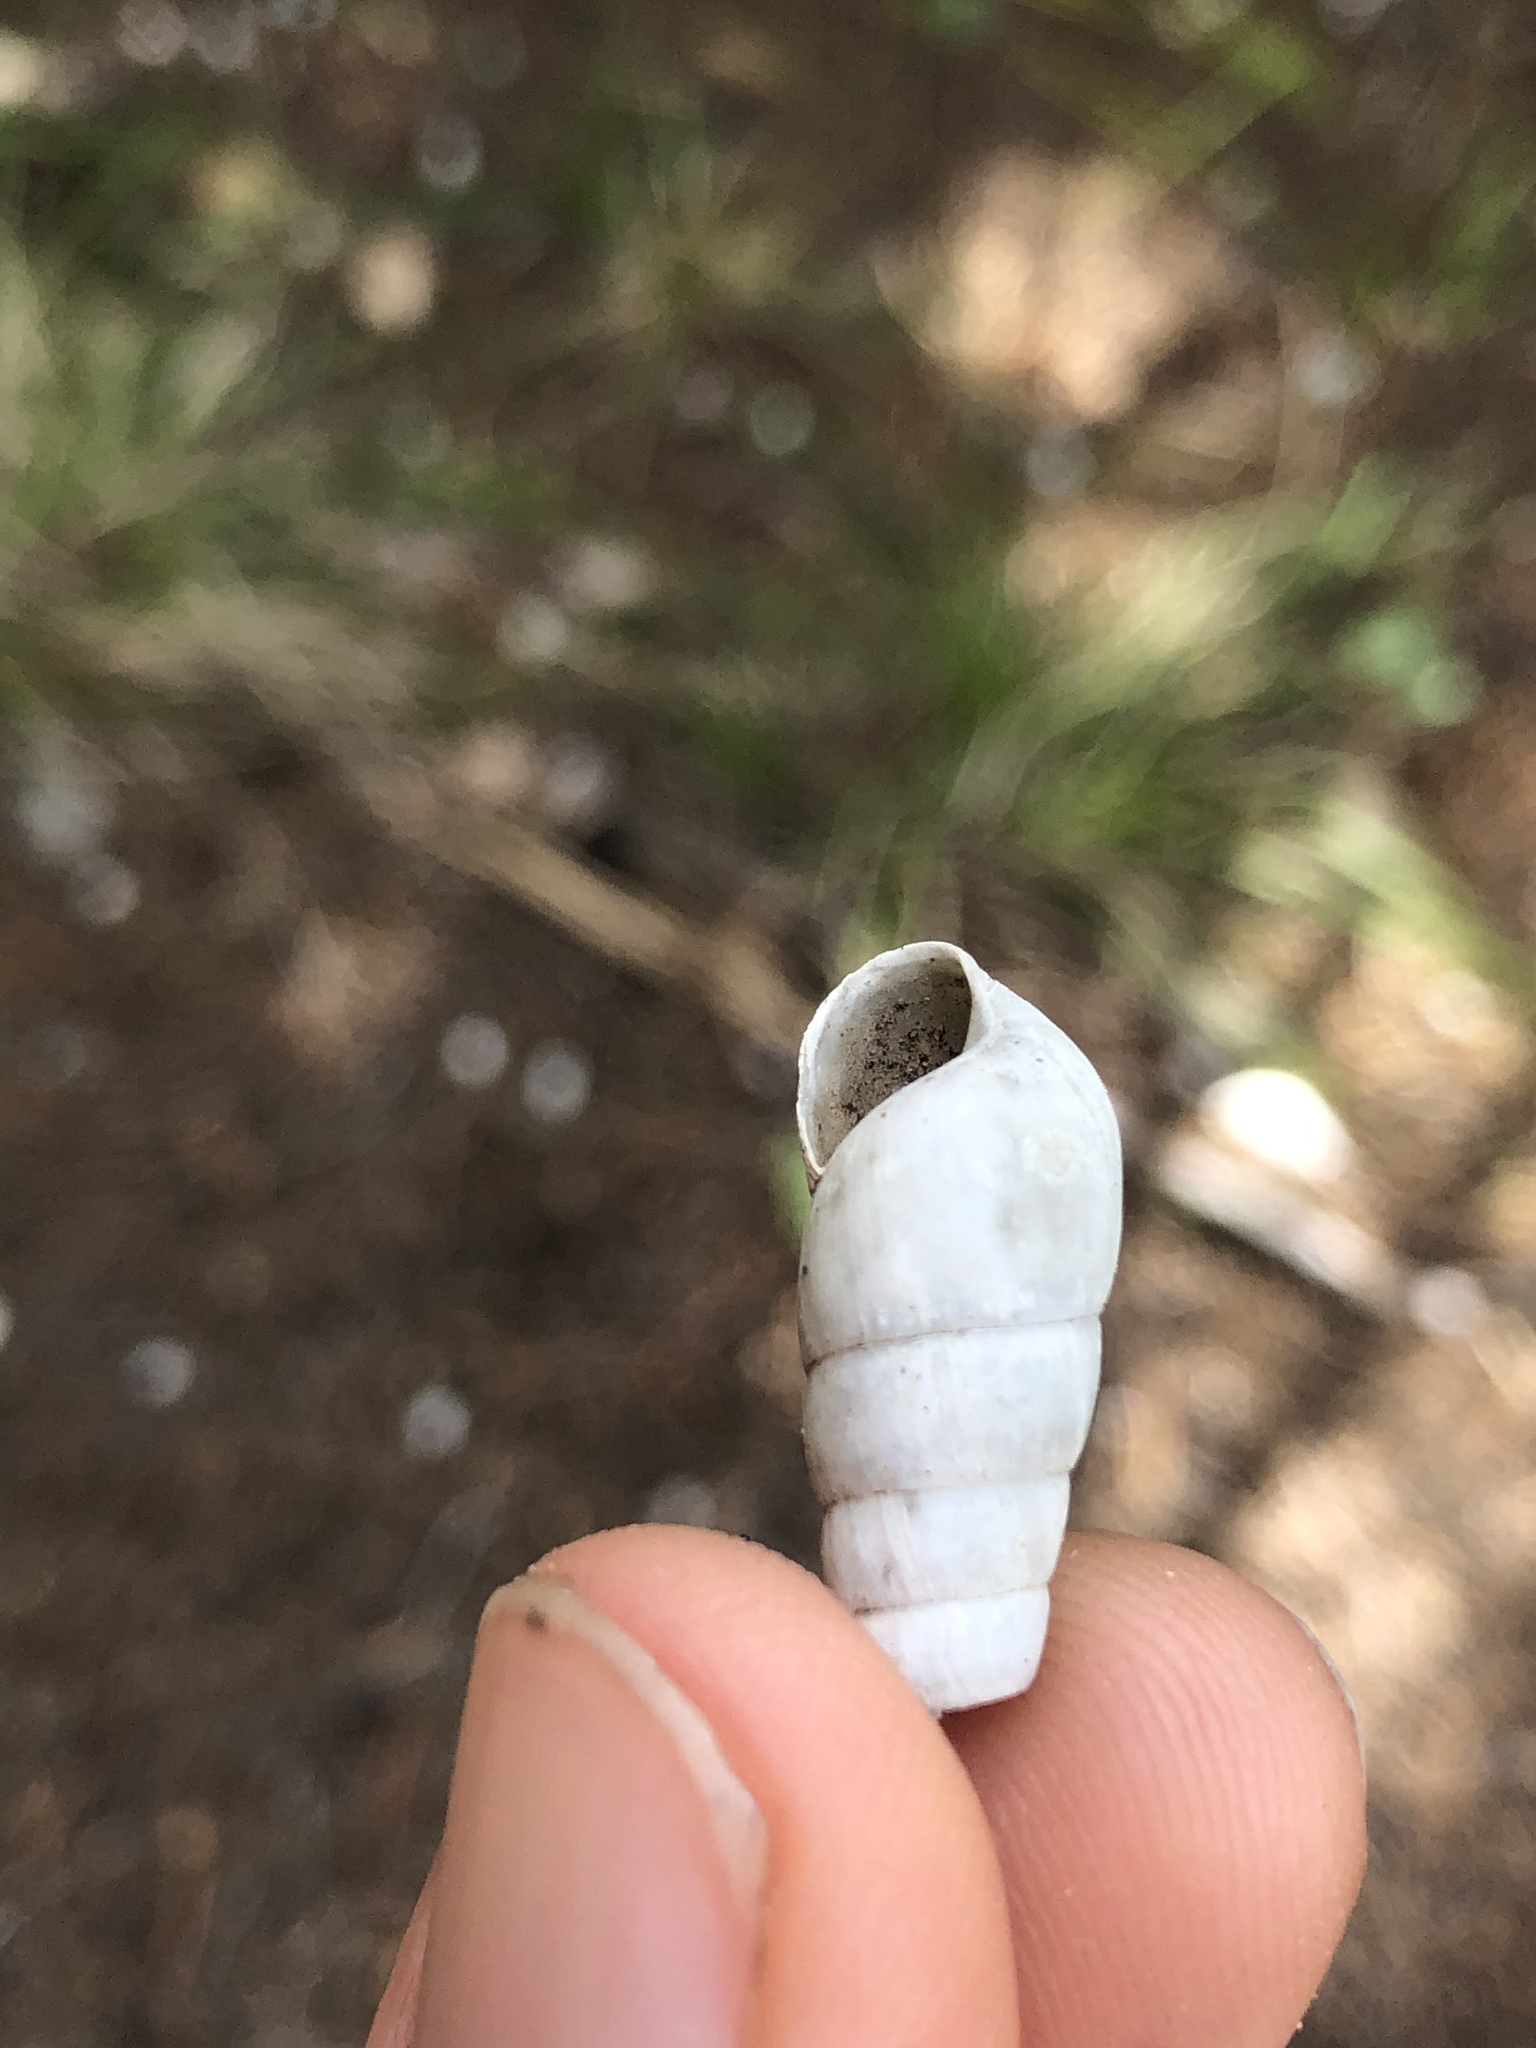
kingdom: Animalia
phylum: Mollusca
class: Gastropoda
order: Stylommatophora
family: Achatinidae
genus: Rumina
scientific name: Rumina decollata
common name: Decollate snail
